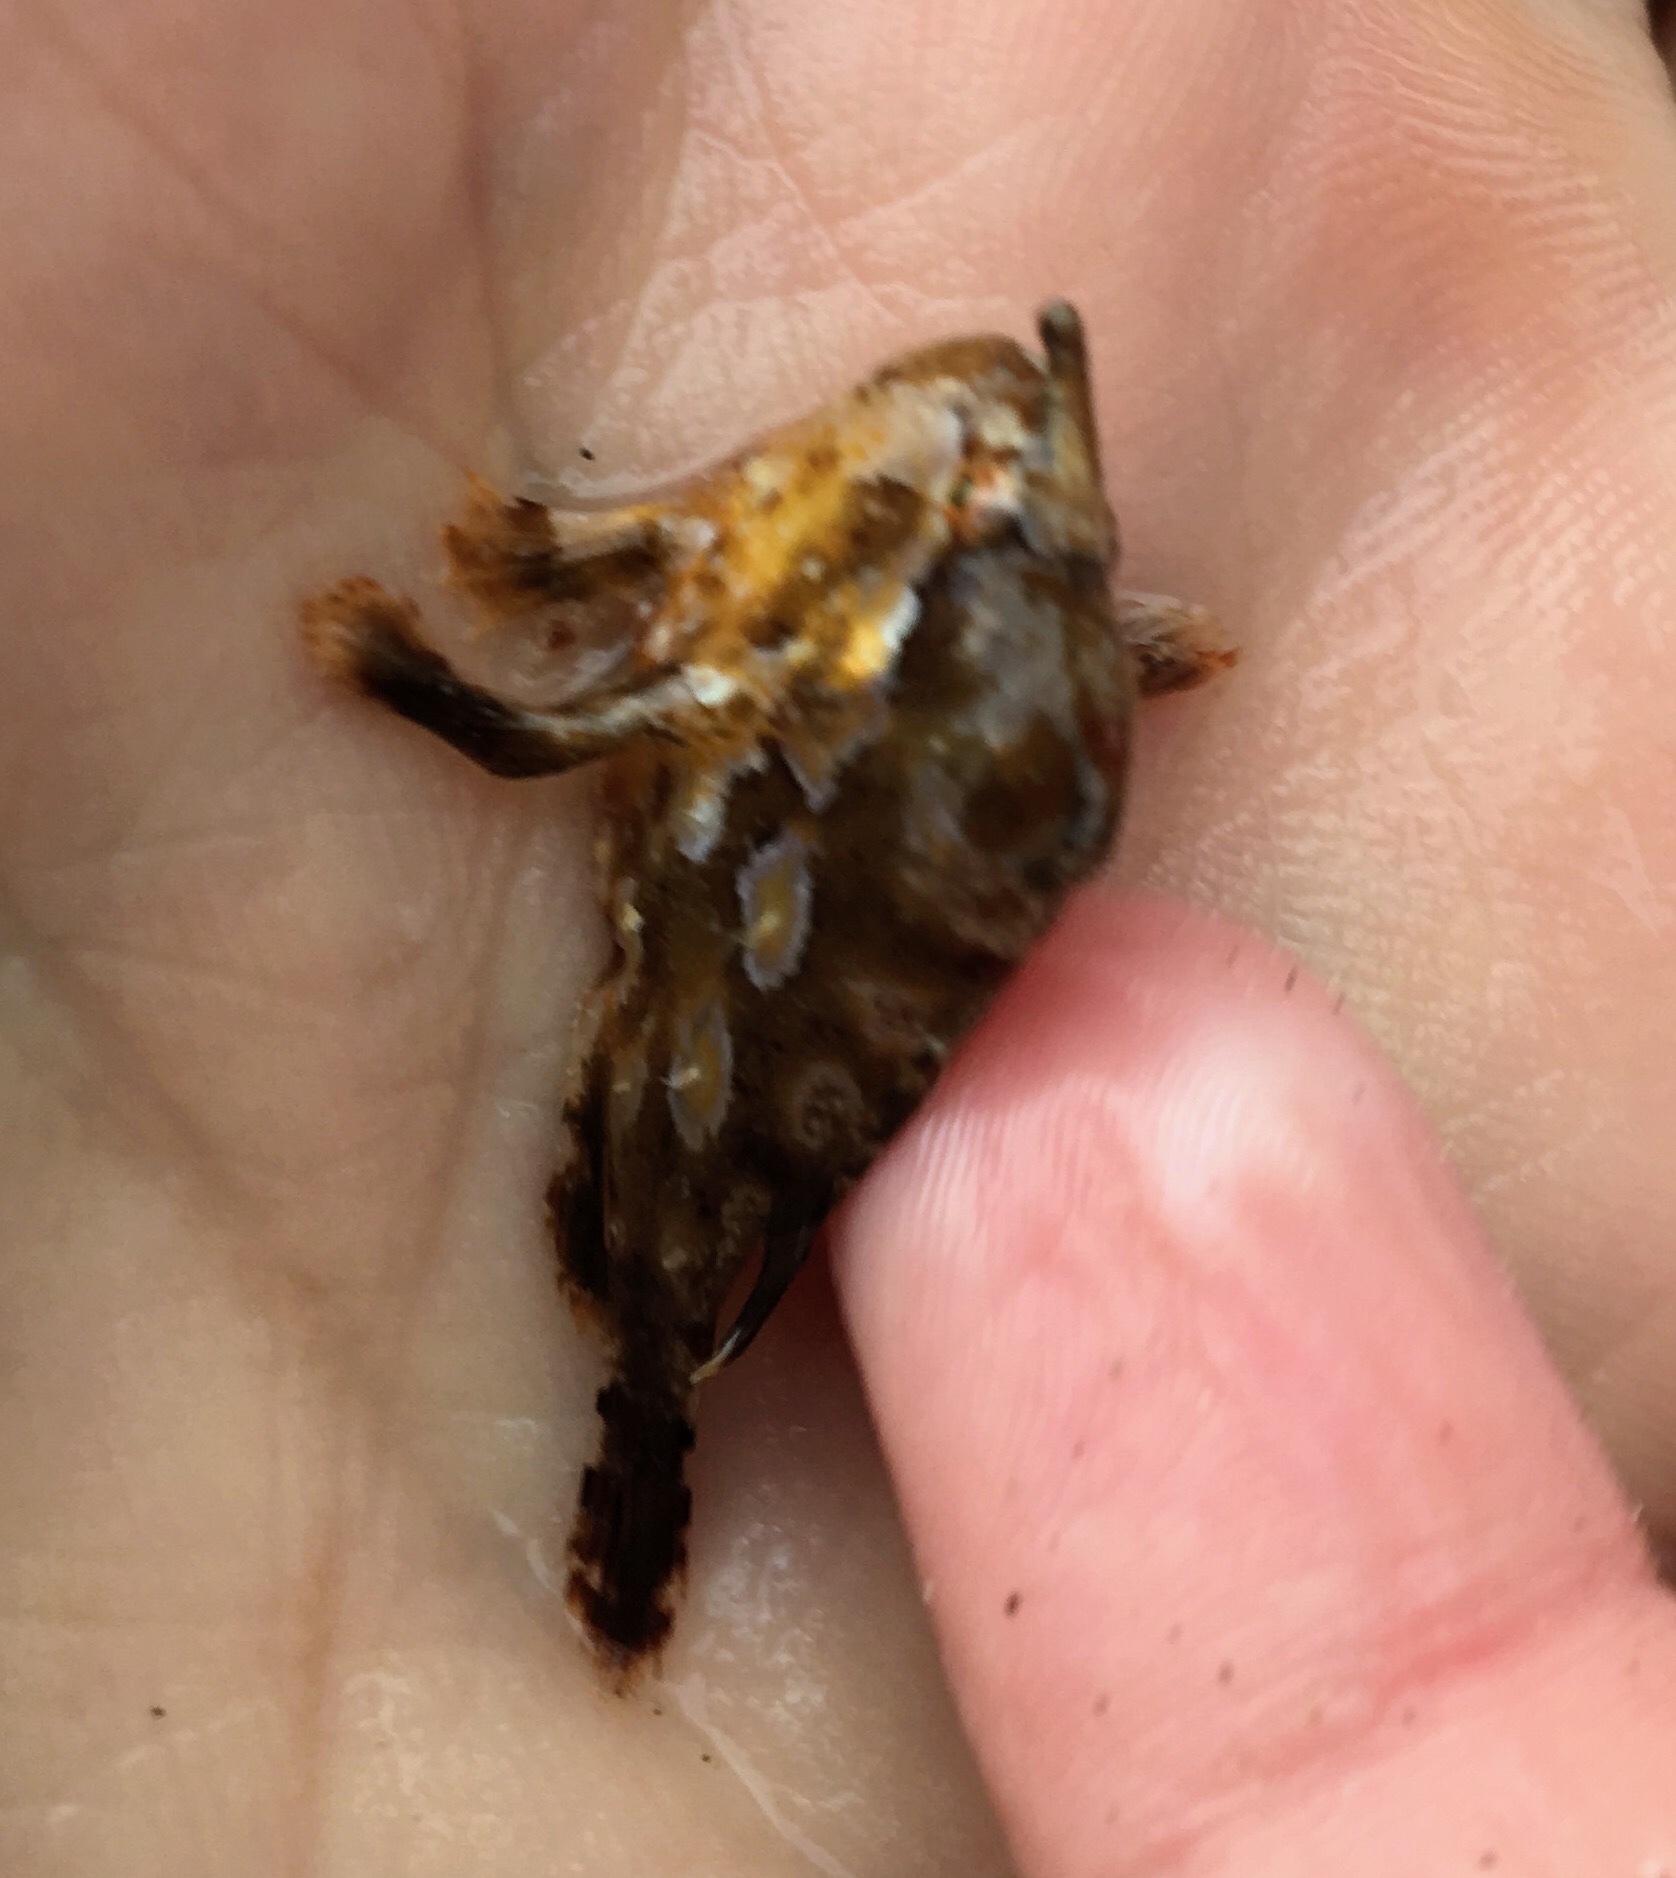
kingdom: Animalia
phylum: Chordata
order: Lophiiformes
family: Antennariidae
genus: Histrio
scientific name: Histrio histrio
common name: Sargassumfish
